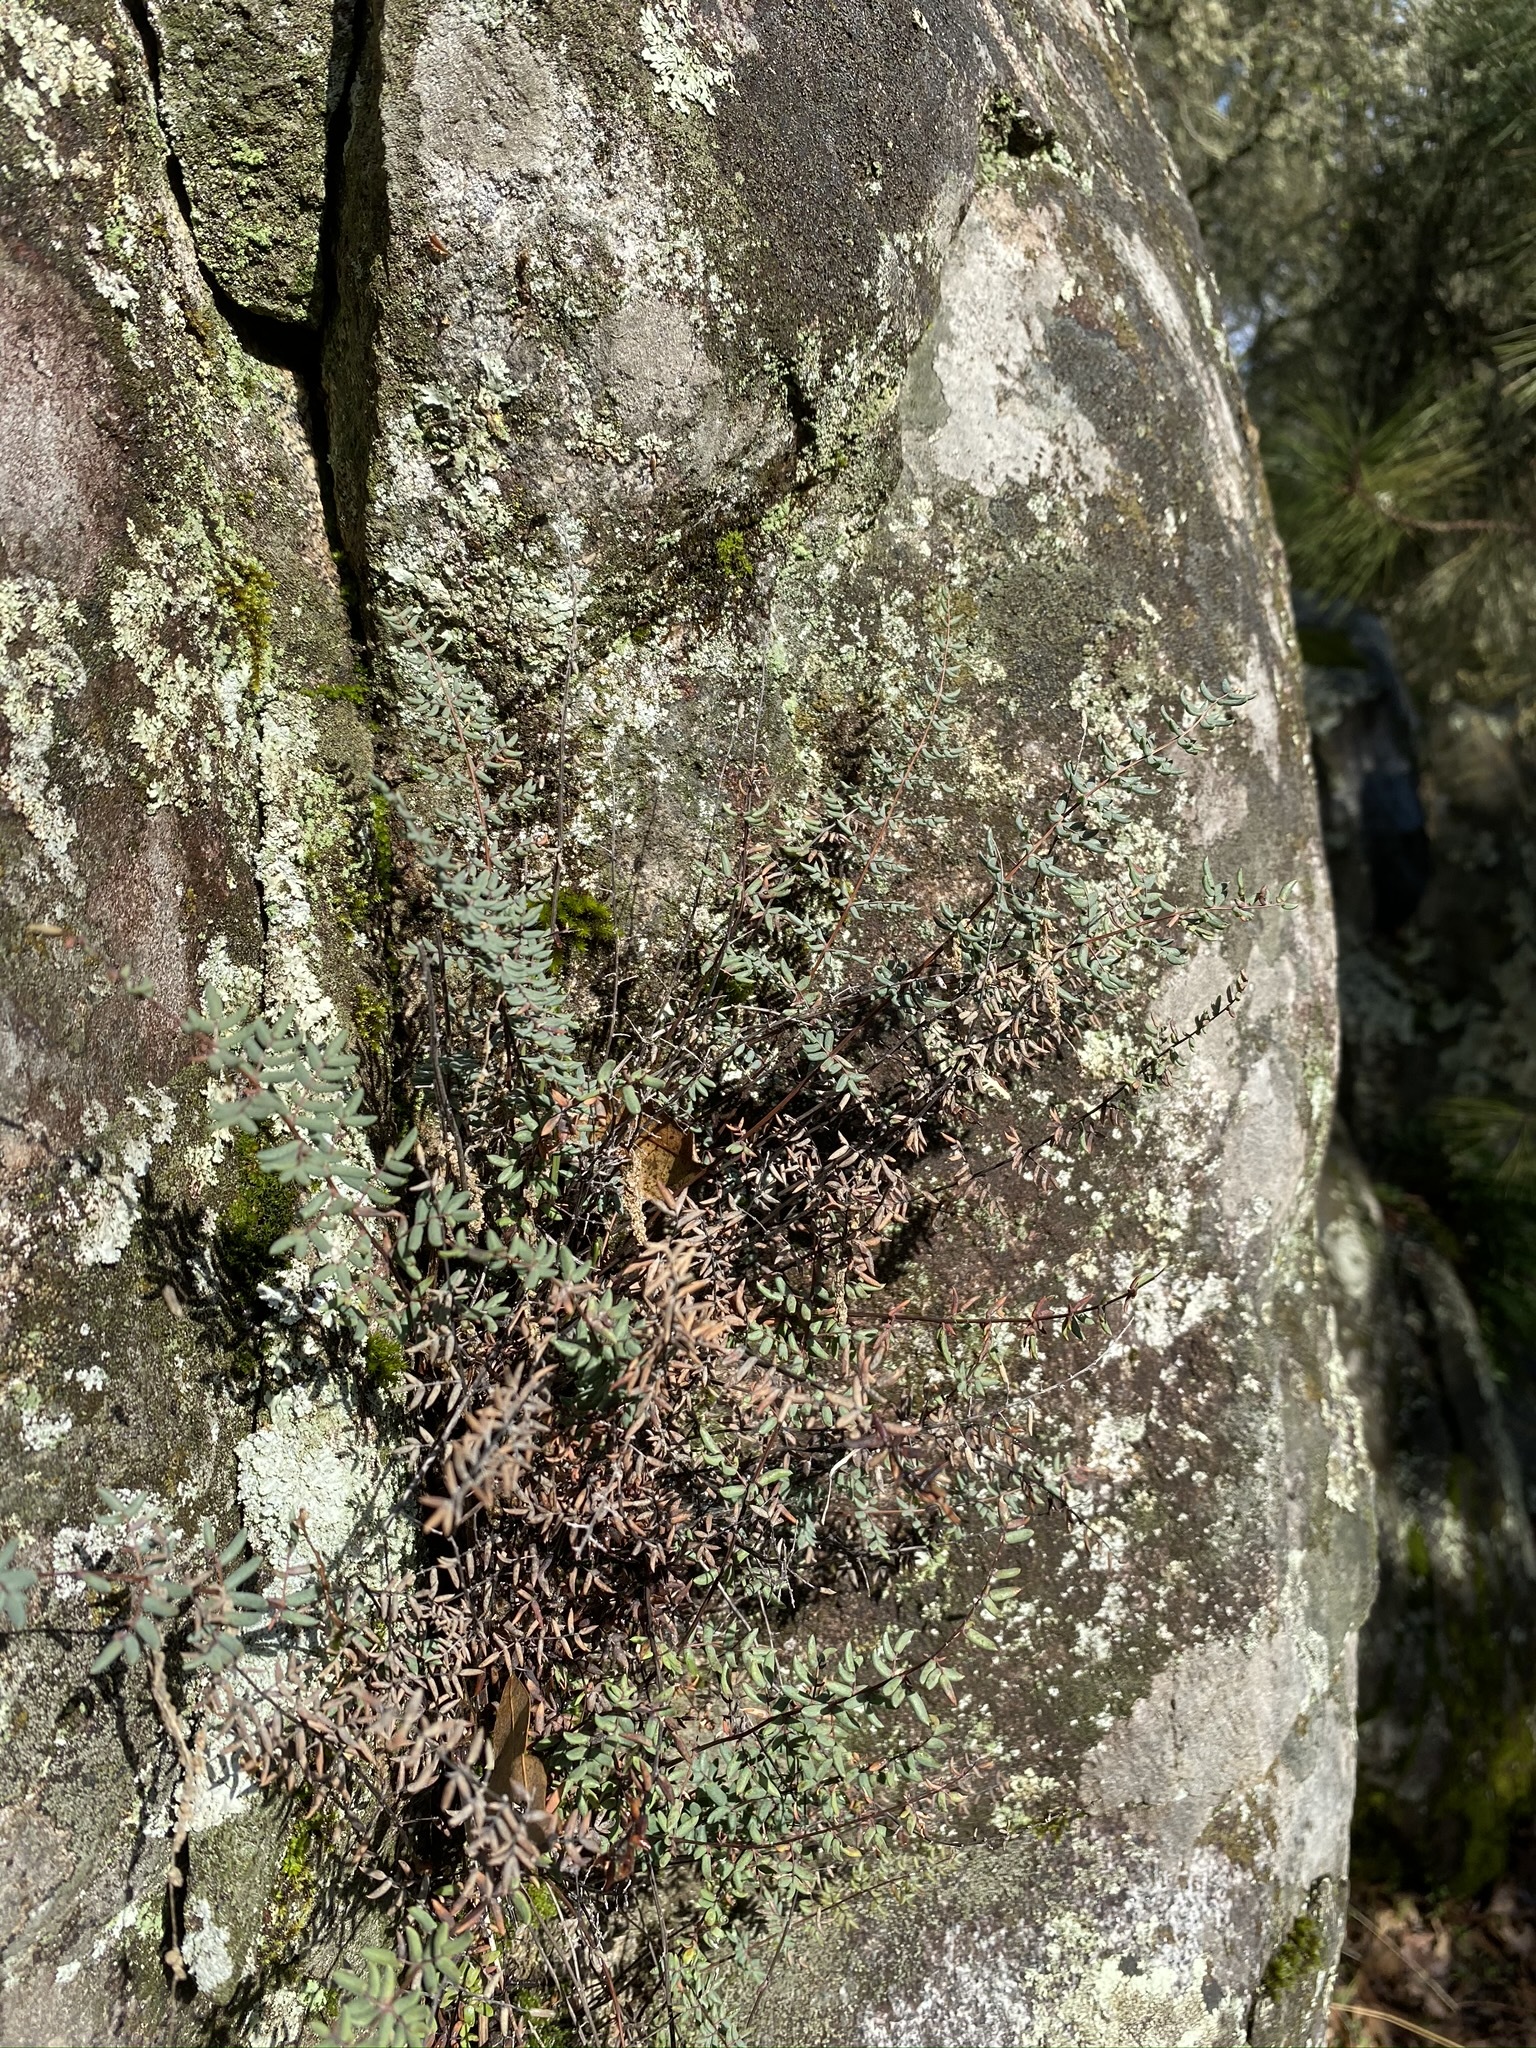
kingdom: Plantae
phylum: Tracheophyta
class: Polypodiopsida
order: Polypodiales
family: Pteridaceae
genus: Pellaea
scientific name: Pellaea mucronata
